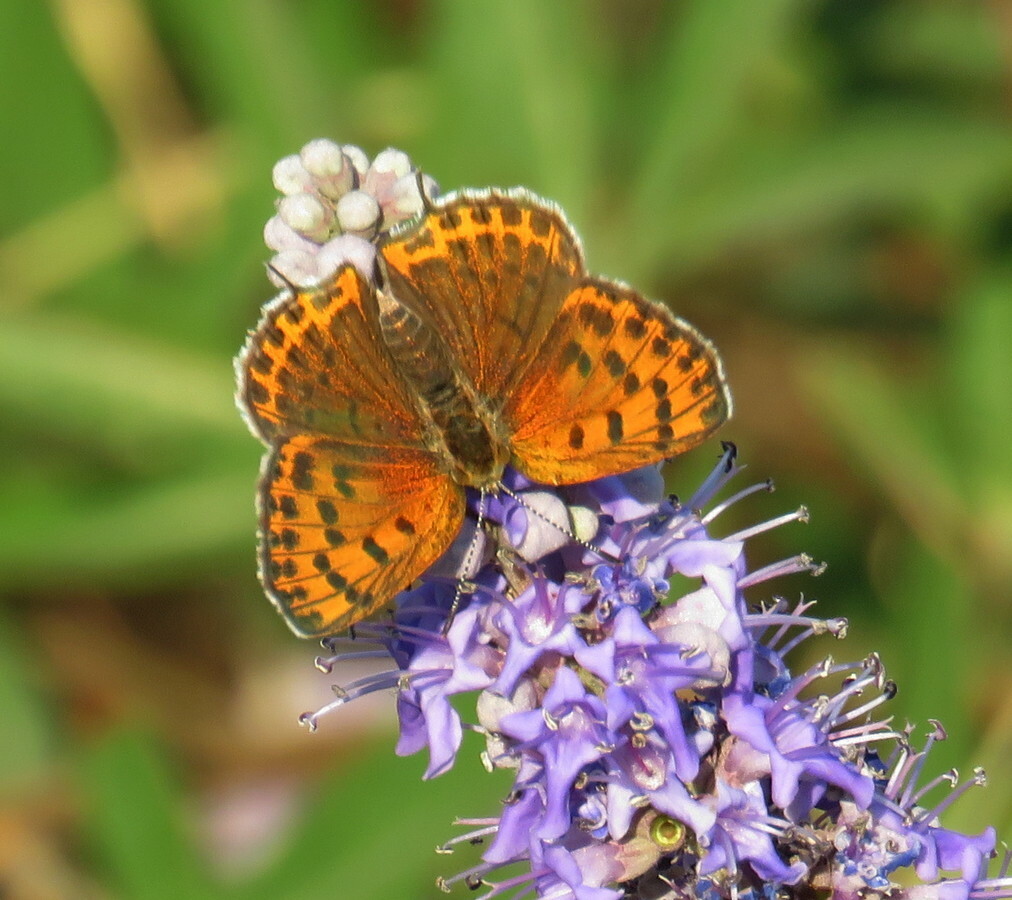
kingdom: Animalia
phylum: Arthropoda
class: Insecta
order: Lepidoptera
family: Lycaenidae
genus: Thersamonia
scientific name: Thersamonia thersamon
